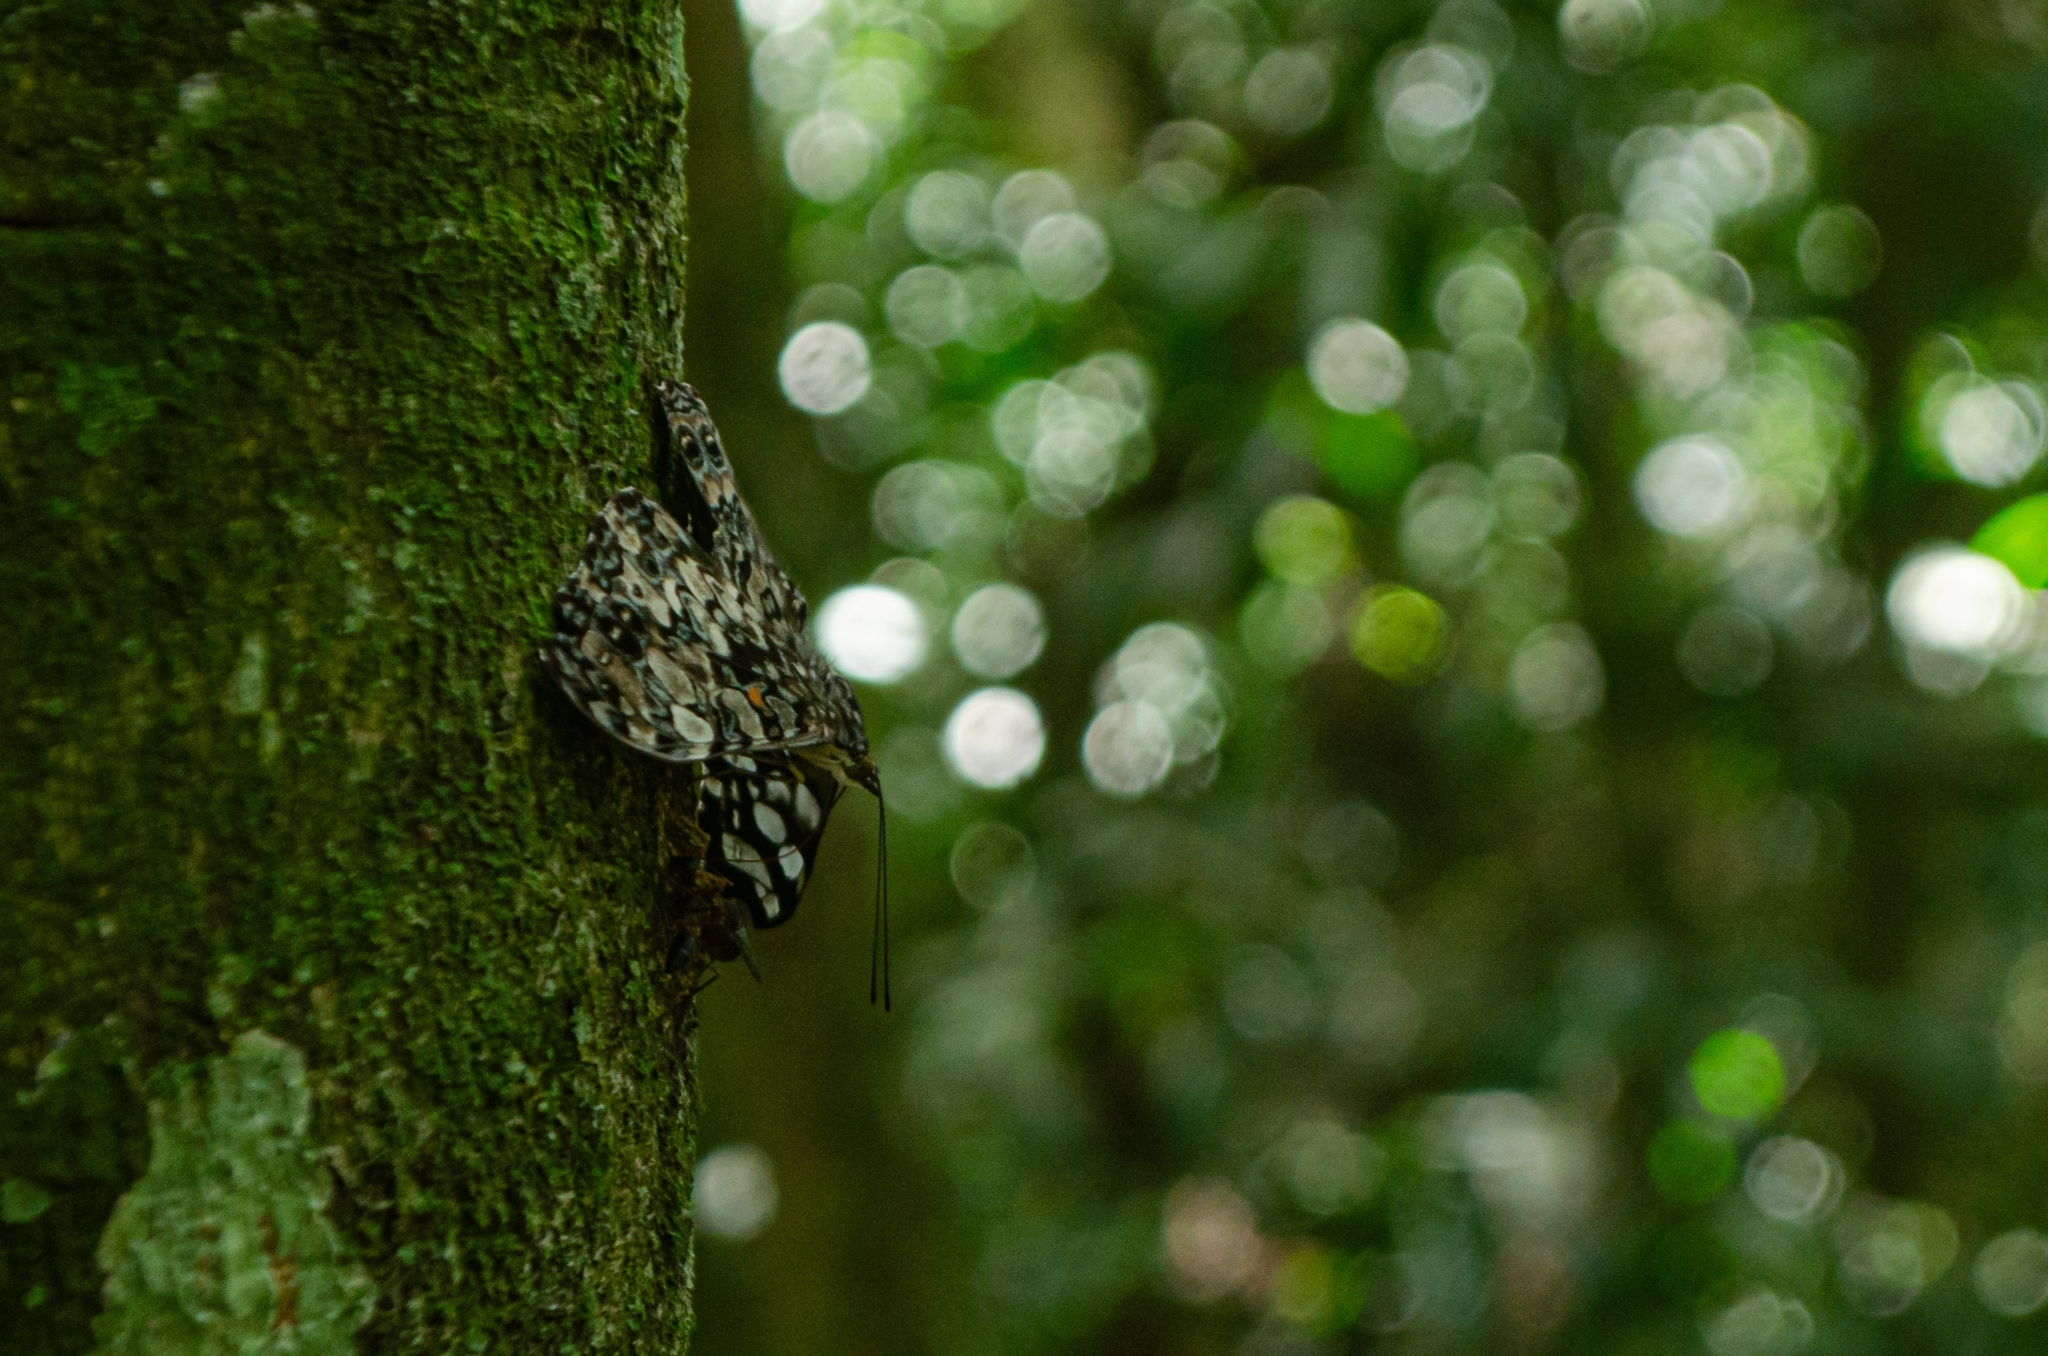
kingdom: Animalia
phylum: Arthropoda
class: Insecta
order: Lepidoptera
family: Nymphalidae
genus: Hamadryas
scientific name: Hamadryas epinome
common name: Epinome cracker
